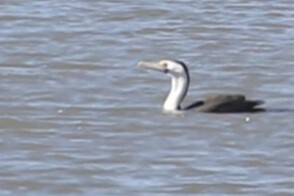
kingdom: Animalia
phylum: Chordata
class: Aves
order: Suliformes
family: Phalacrocoracidae
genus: Phalacrocorax
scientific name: Phalacrocorax varius
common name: Pied cormorant
